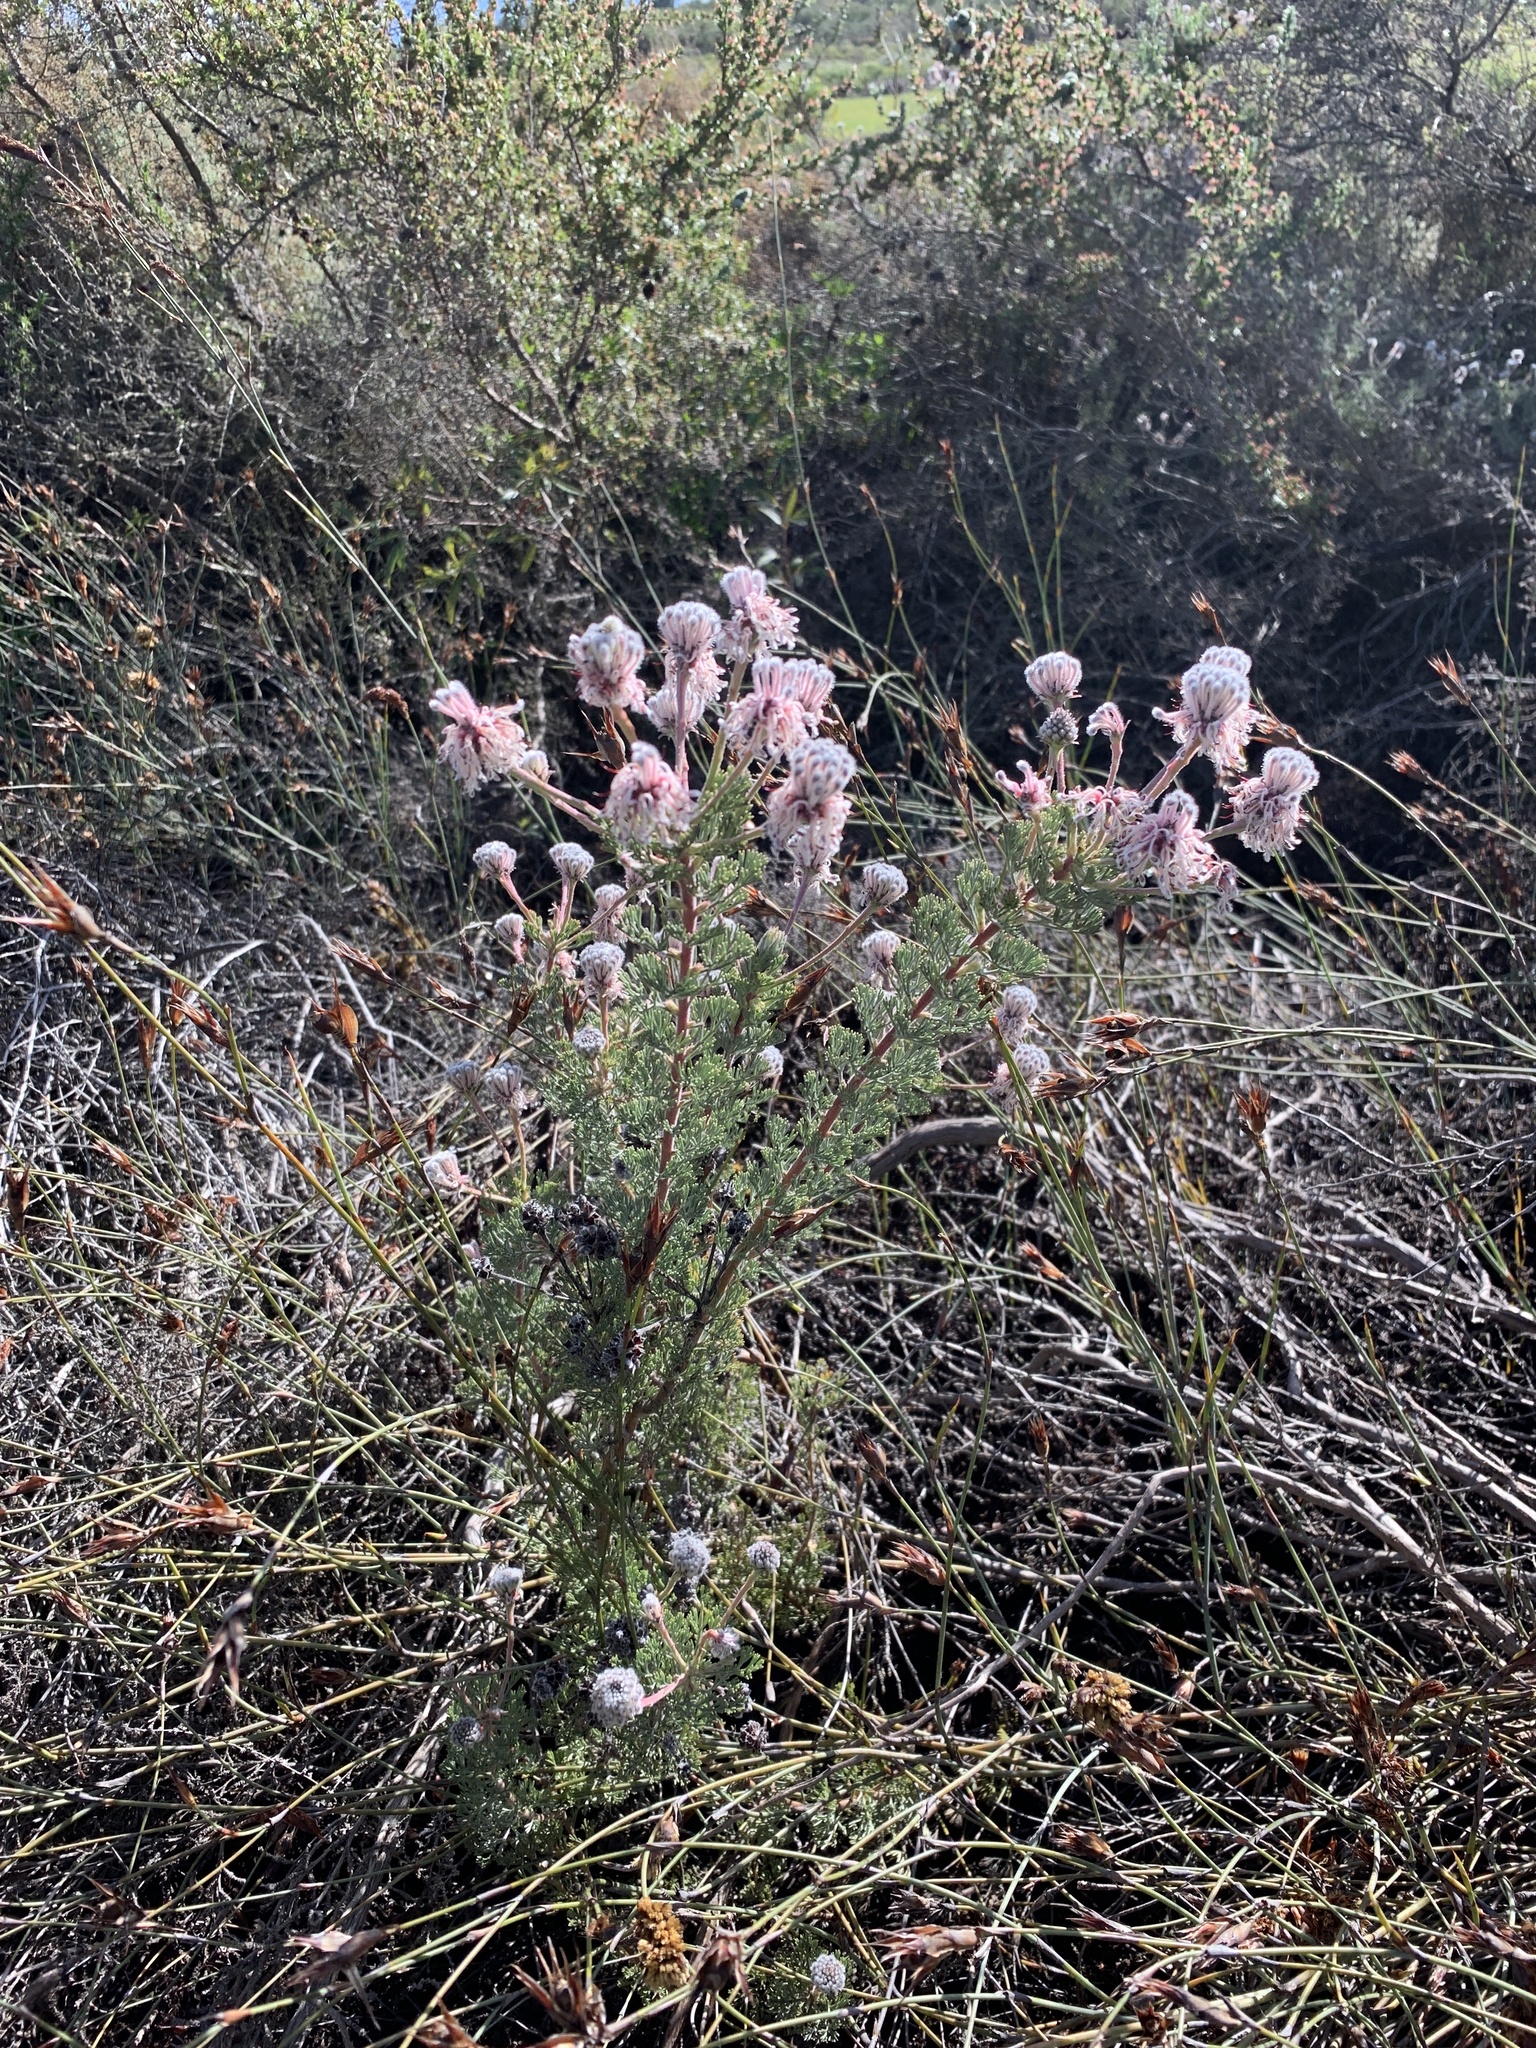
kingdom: Plantae
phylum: Tracheophyta
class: Magnoliopsida
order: Proteales
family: Proteaceae
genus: Serruria
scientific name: Serruria aitonii
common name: Marshmallow spiderhead
